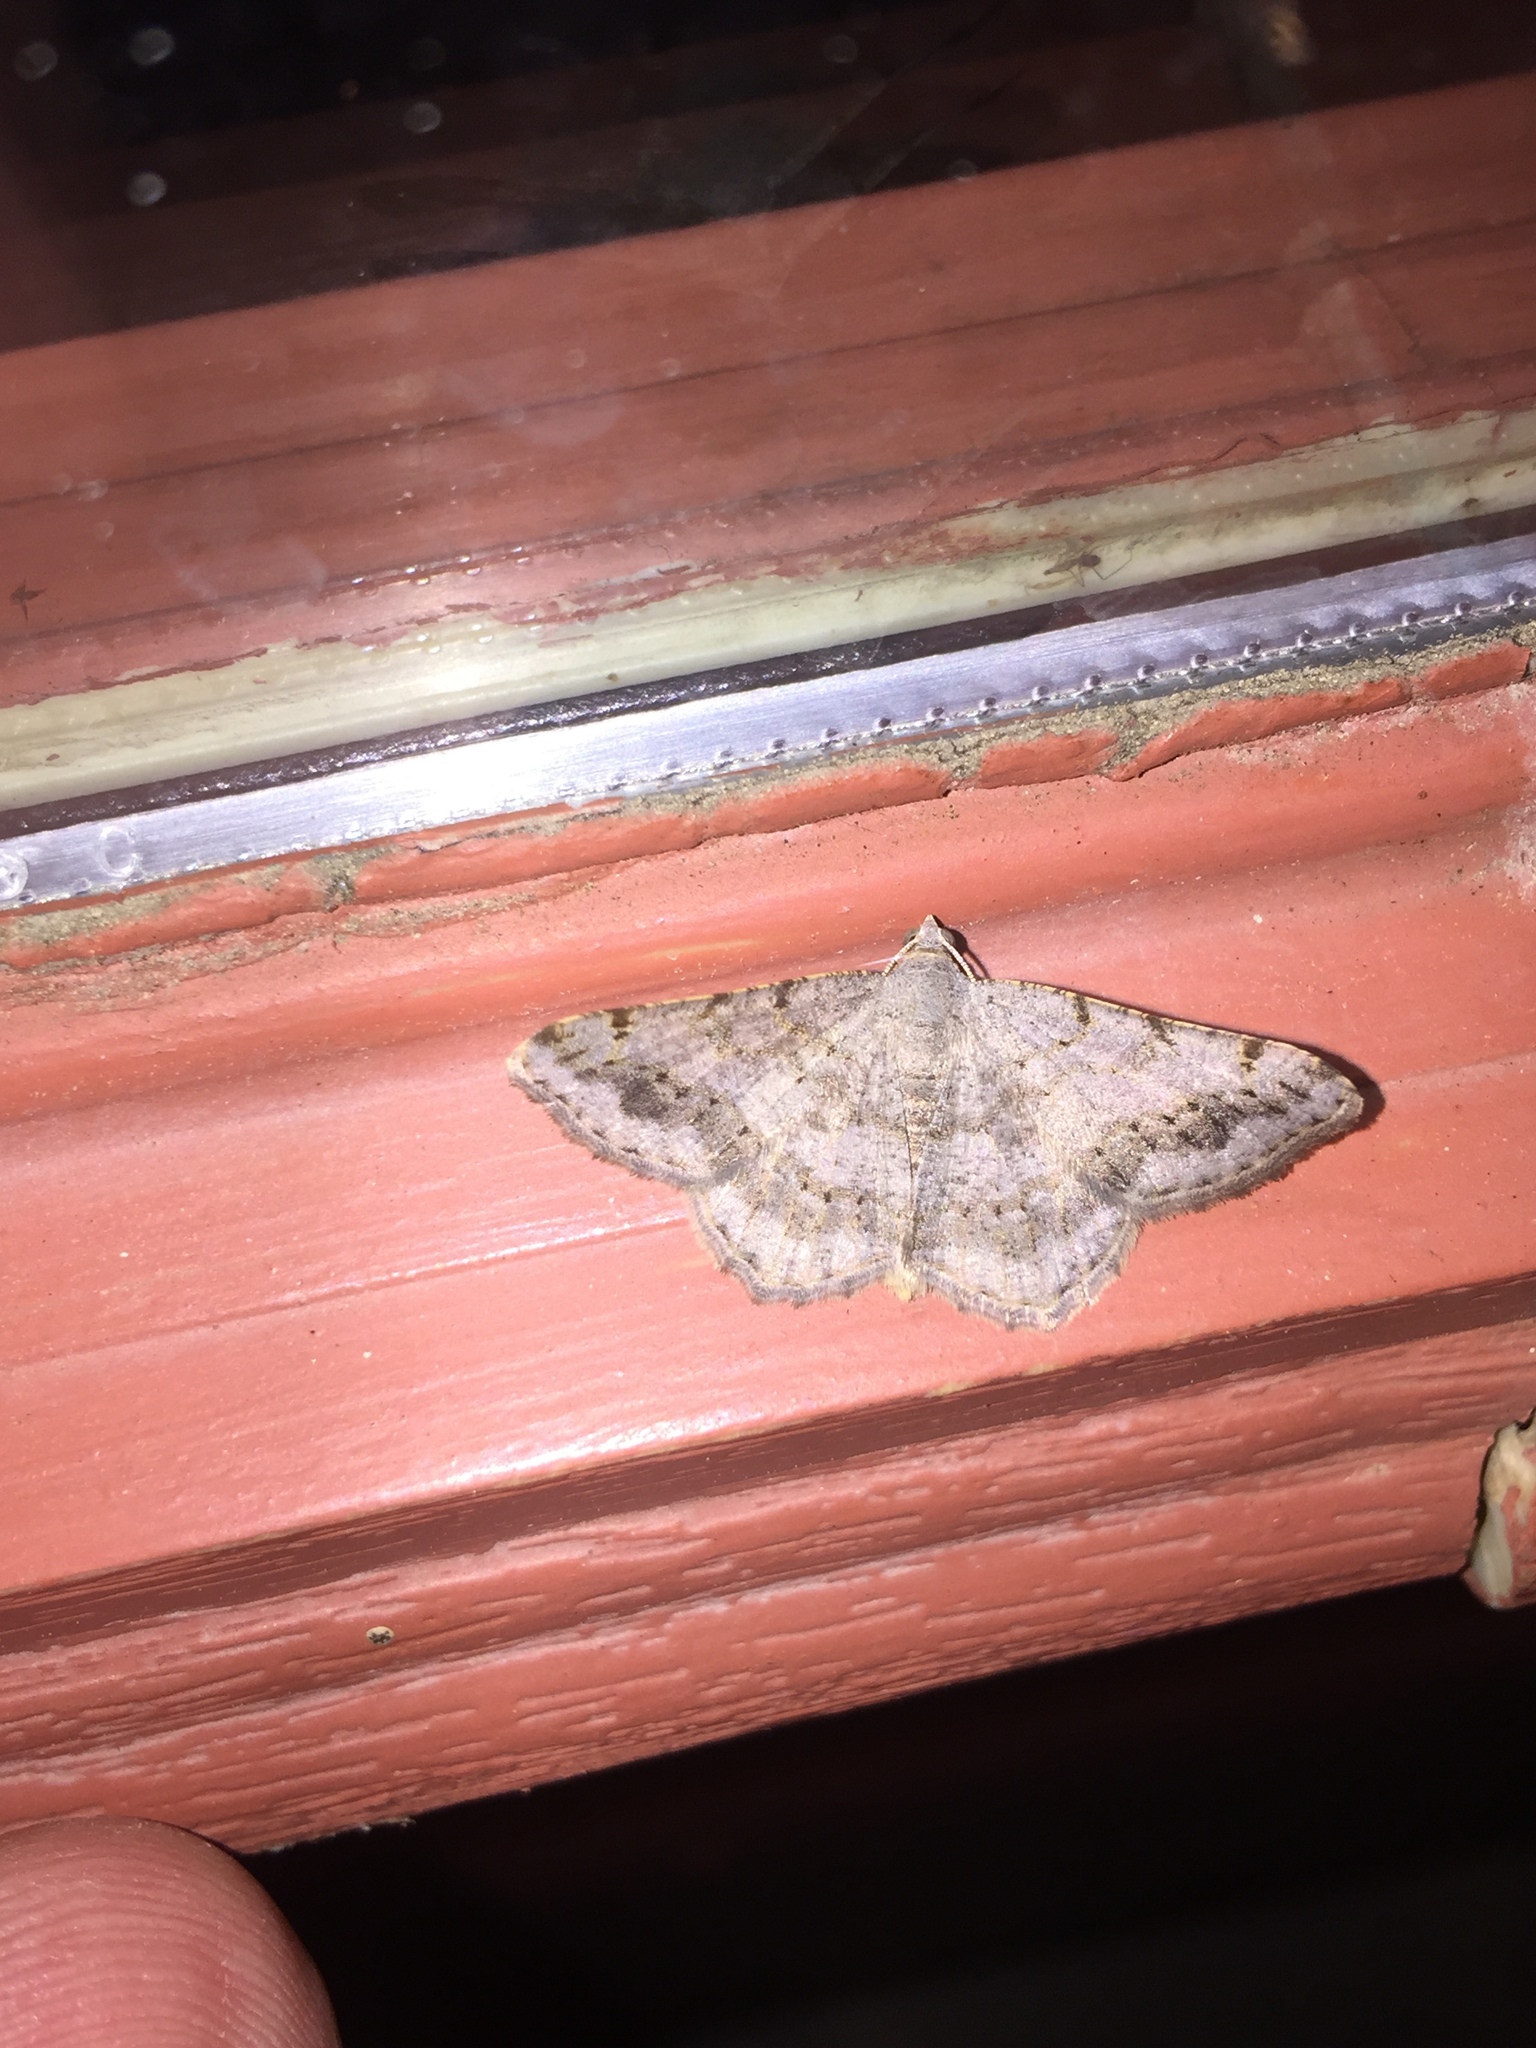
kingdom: Animalia
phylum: Arthropoda
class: Insecta
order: Lepidoptera
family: Geometridae
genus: Digrammia
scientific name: Digrammia ocellinata
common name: Faint-spotted angle
